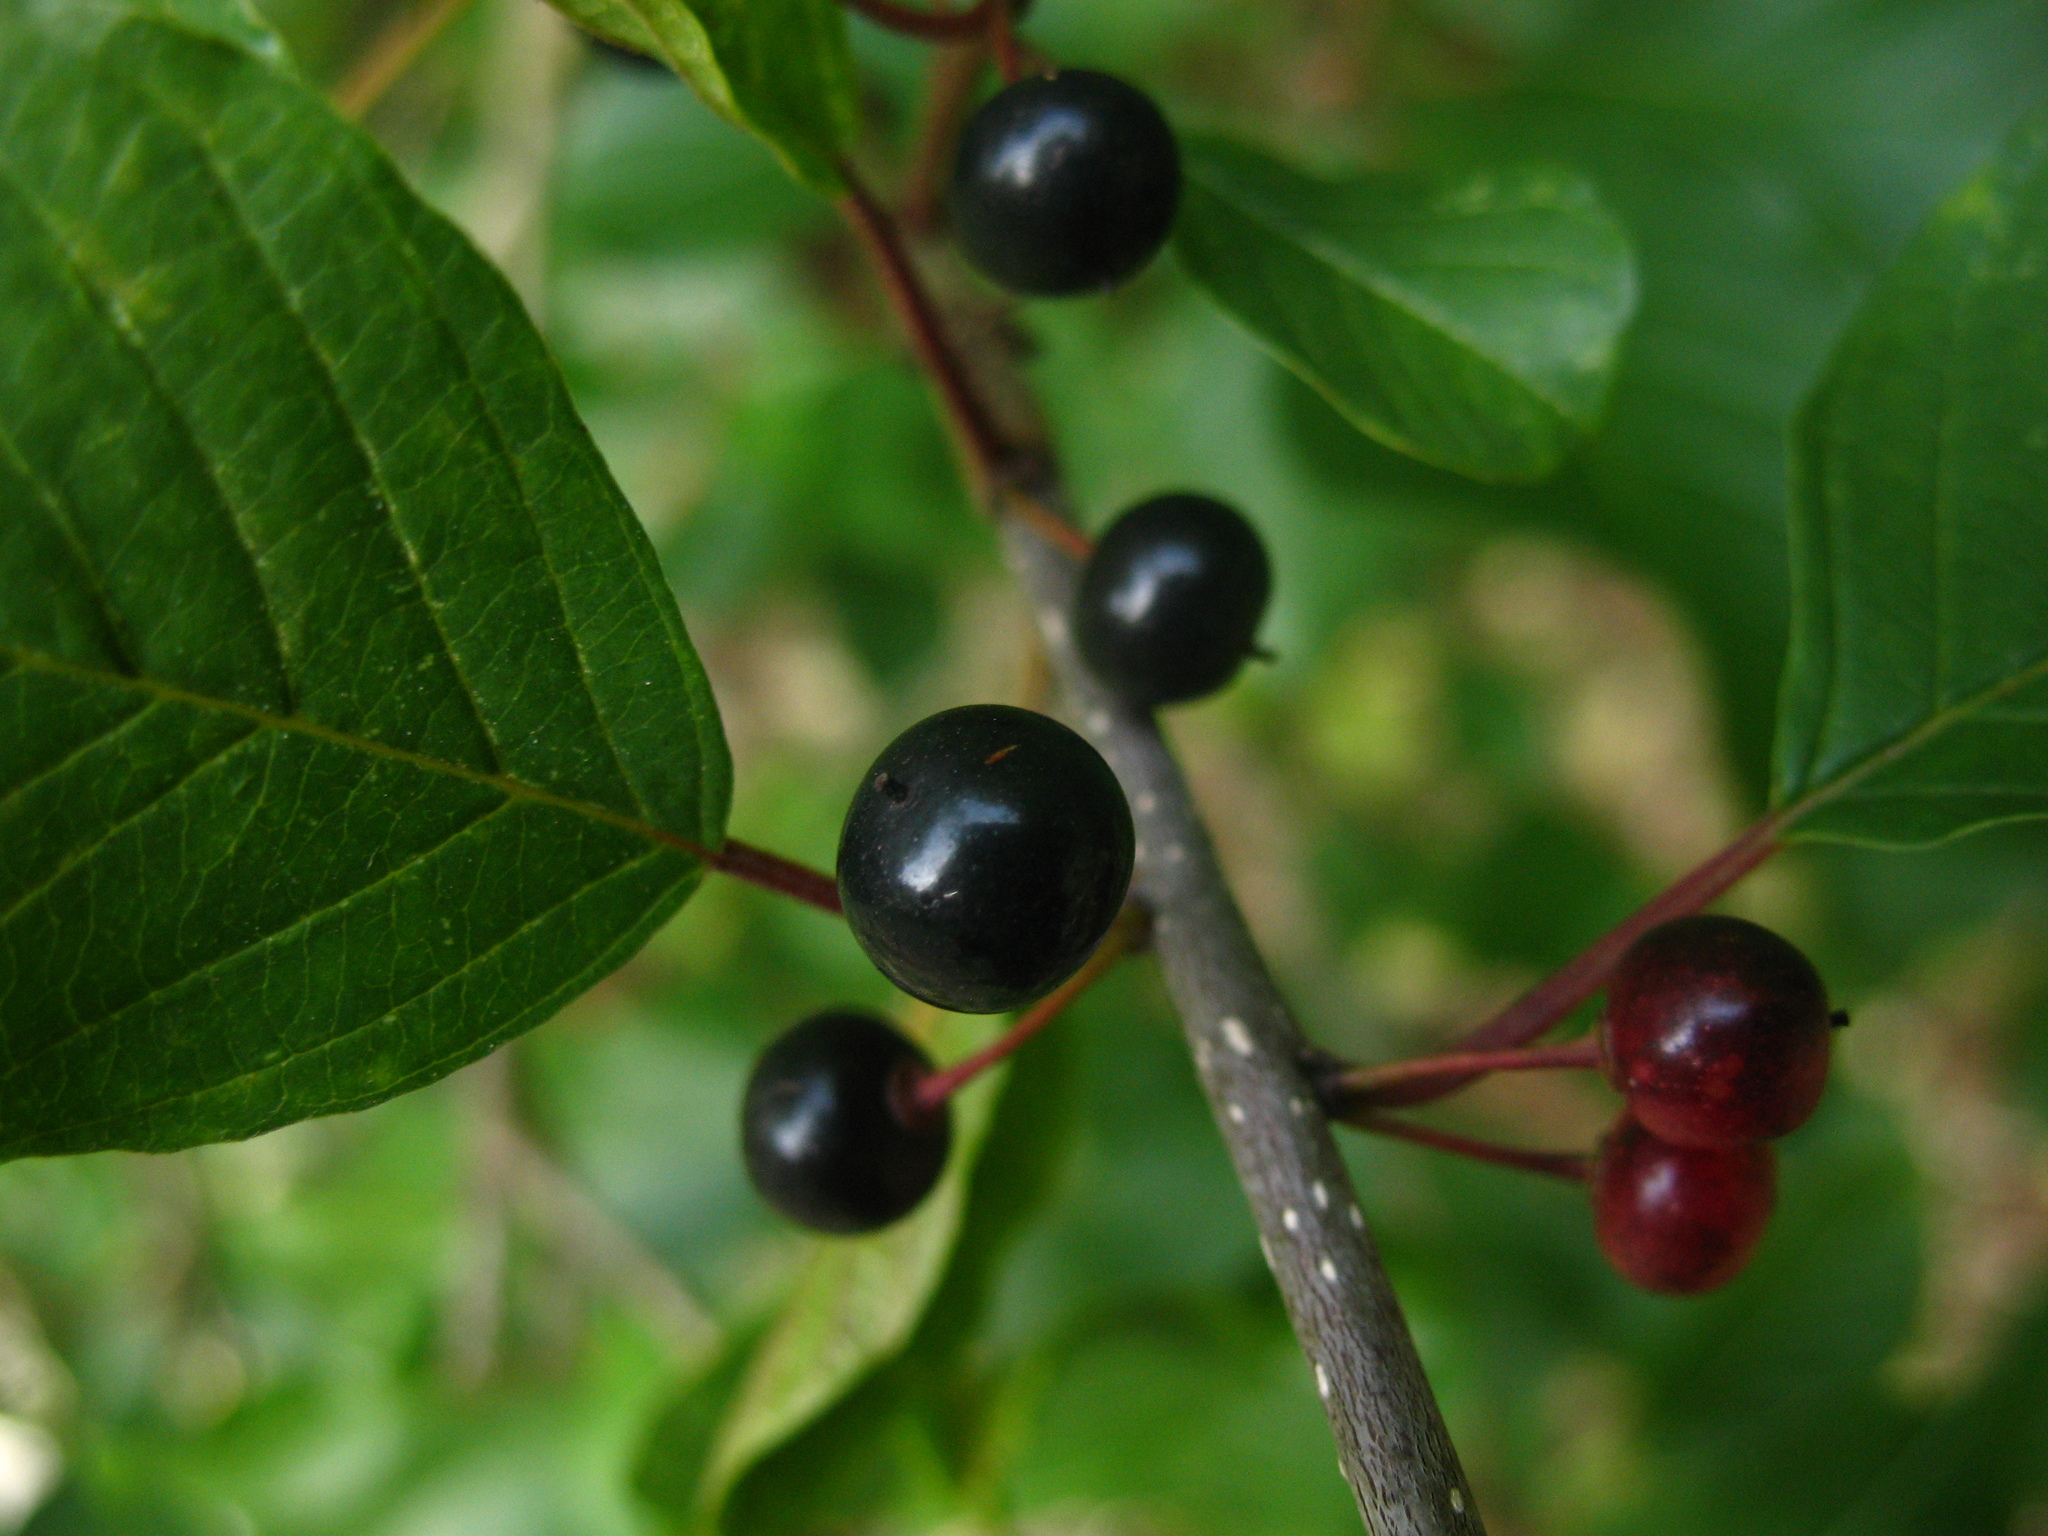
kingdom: Plantae
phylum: Tracheophyta
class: Magnoliopsida
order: Rosales
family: Rhamnaceae
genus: Frangula
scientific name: Frangula alnus
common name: Alder buckthorn
